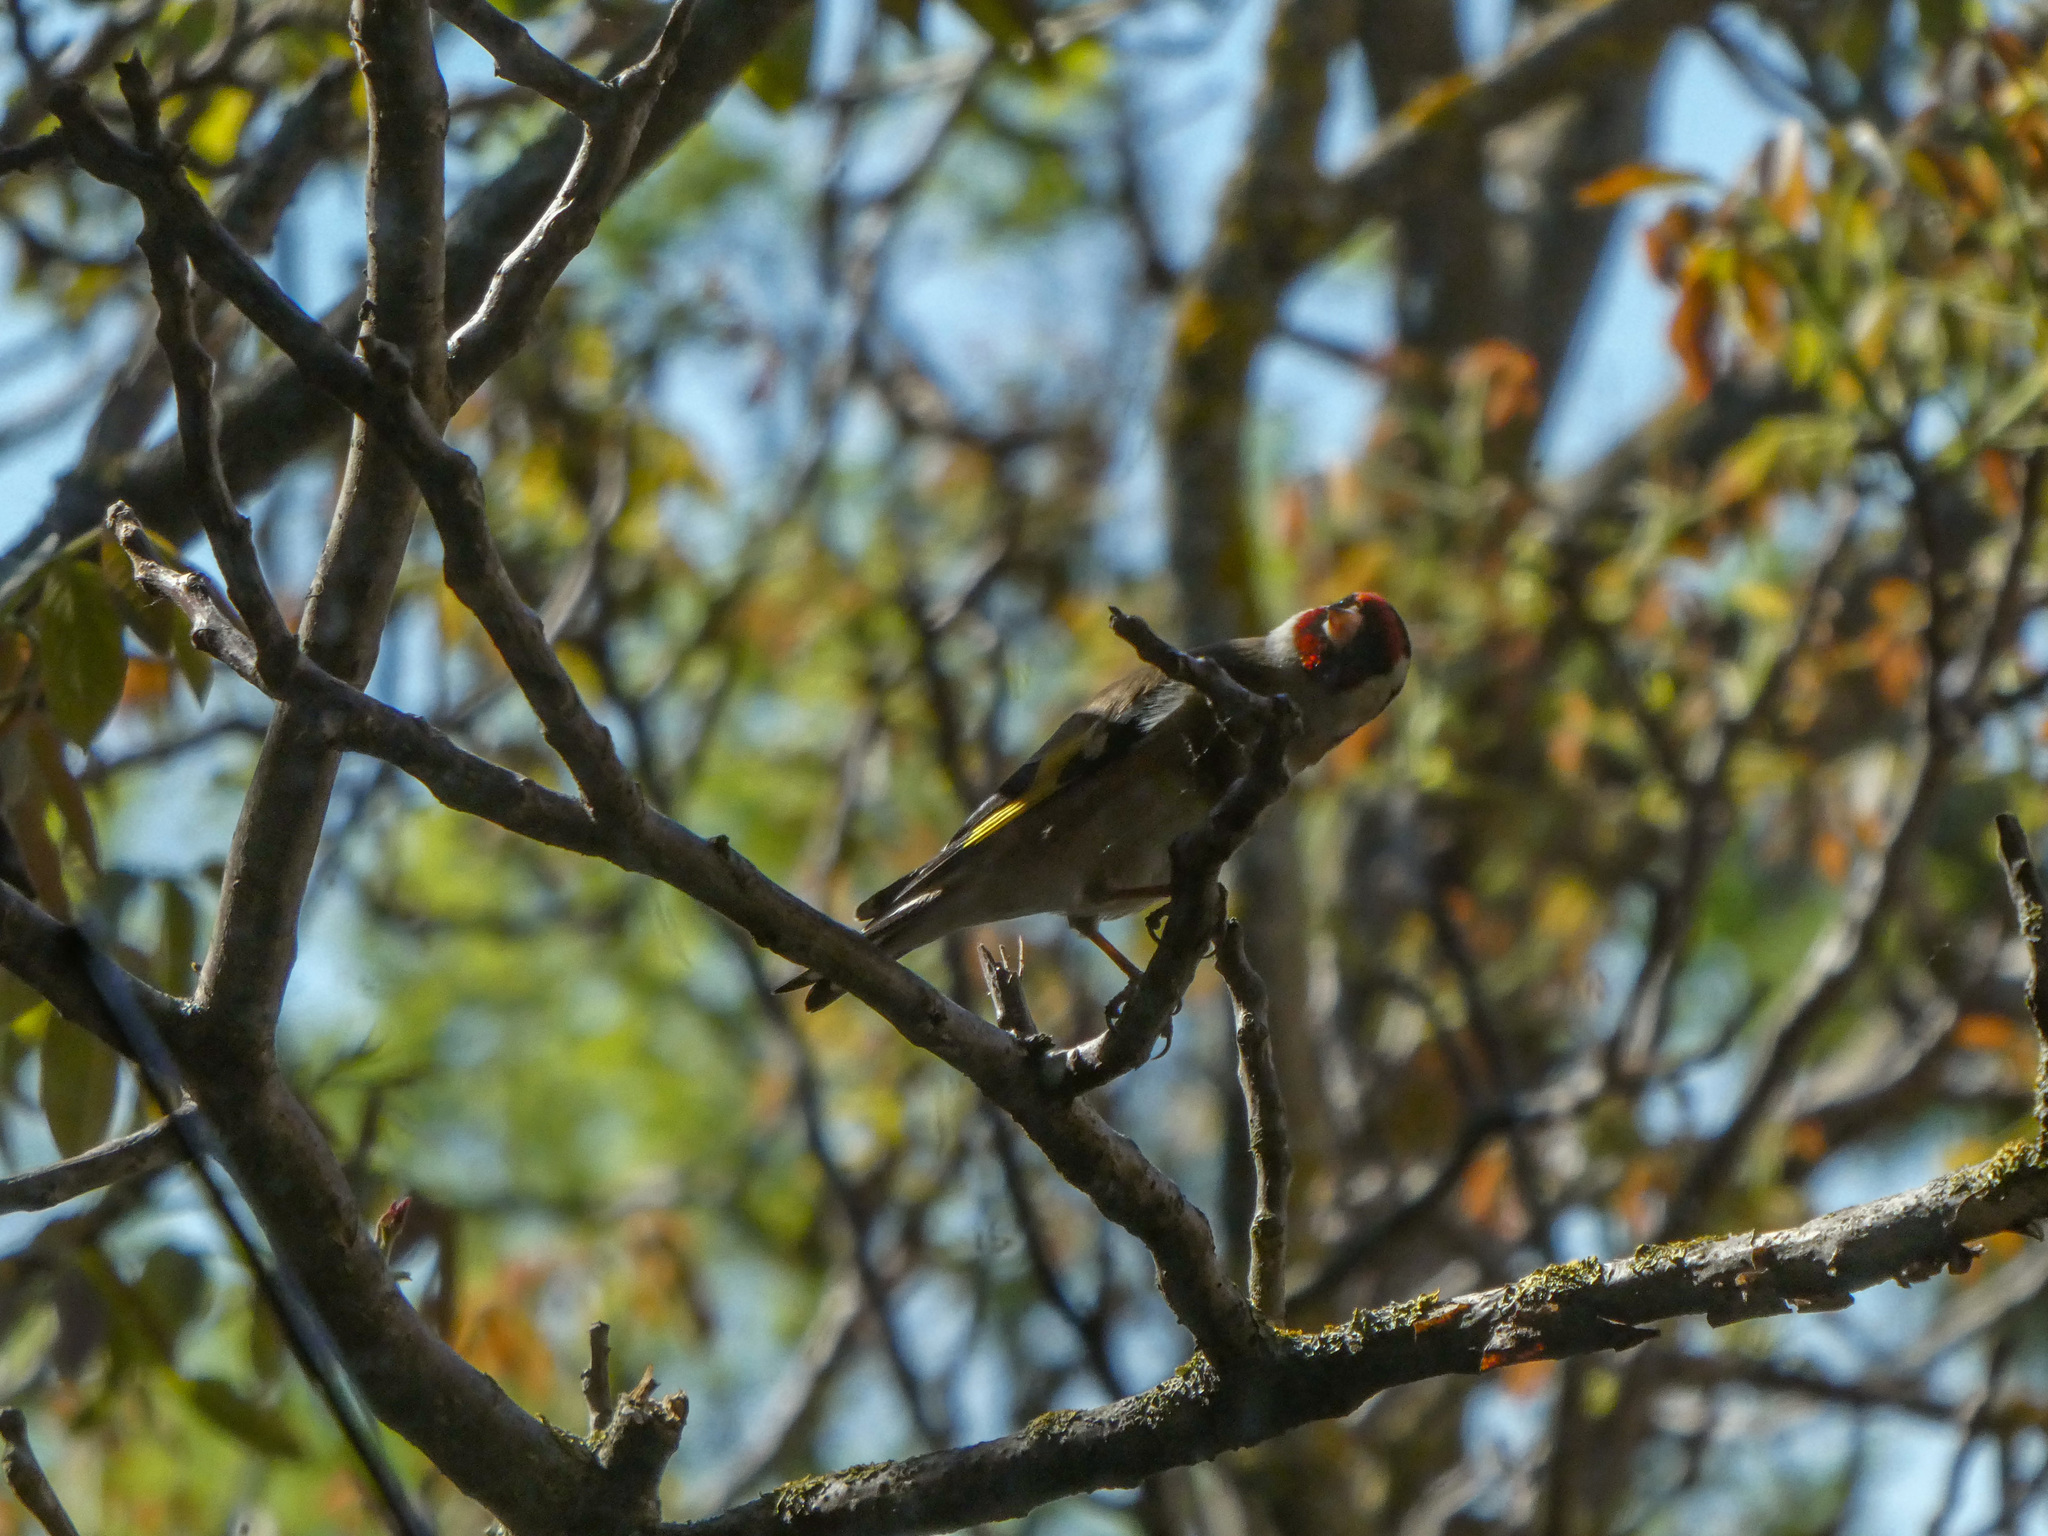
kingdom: Animalia
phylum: Chordata
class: Aves
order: Passeriformes
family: Fringillidae
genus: Carduelis
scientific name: Carduelis carduelis
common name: European goldfinch
